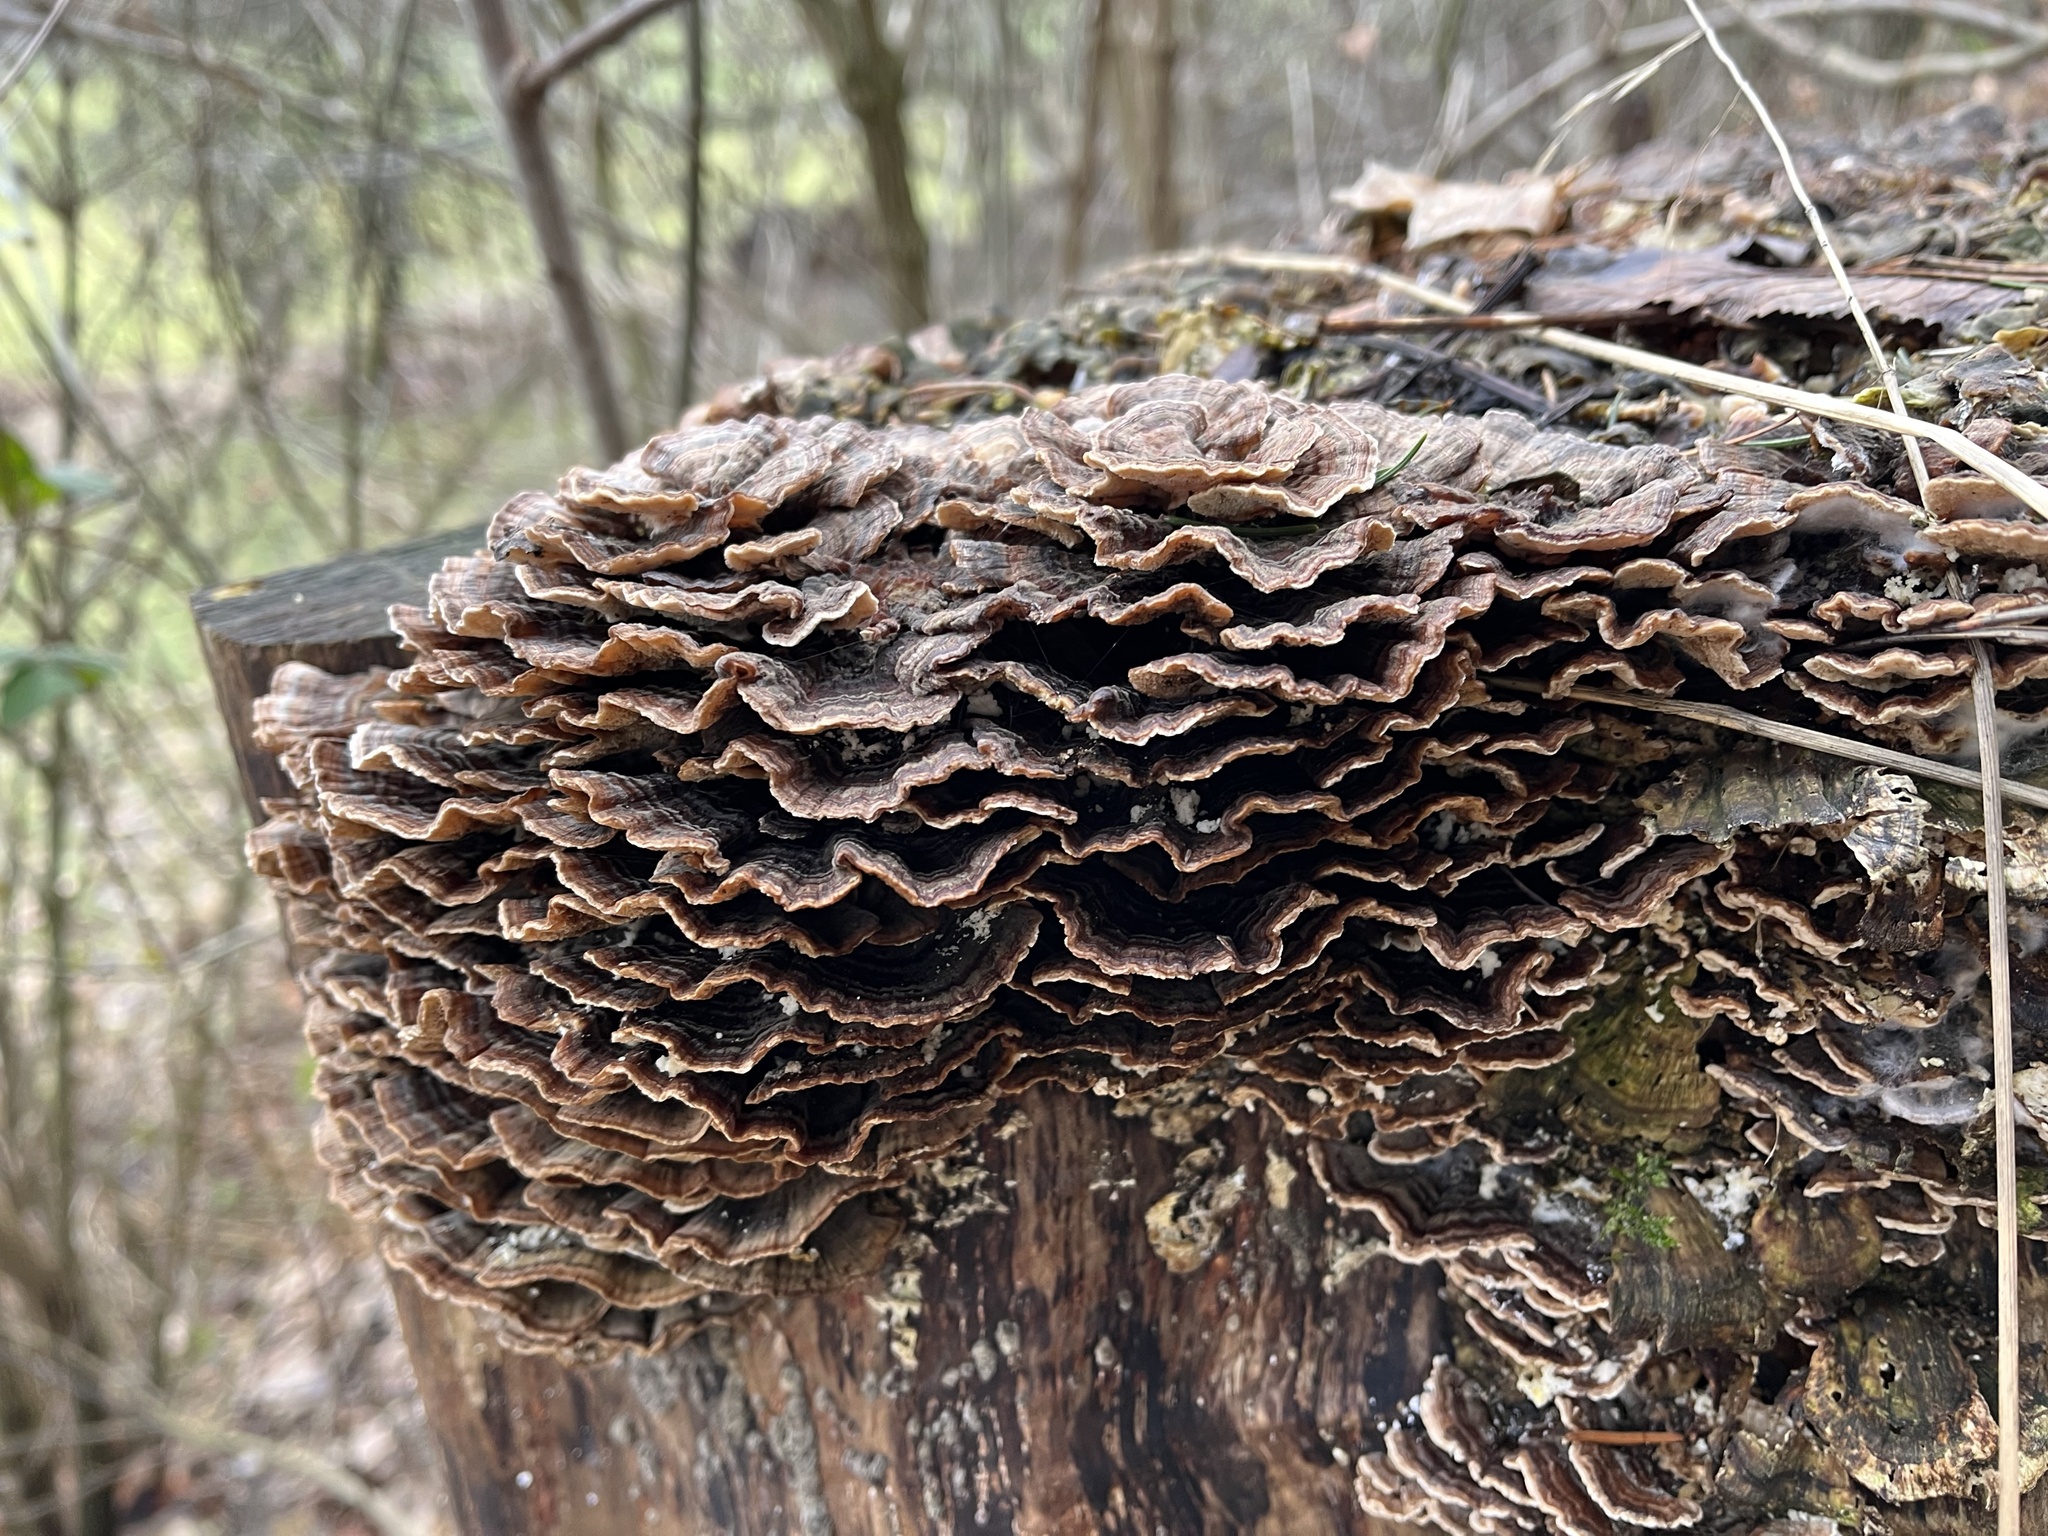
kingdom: Fungi
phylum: Basidiomycota
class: Agaricomycetes
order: Polyporales
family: Polyporaceae
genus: Trametes
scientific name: Trametes versicolor
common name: Turkeytail
